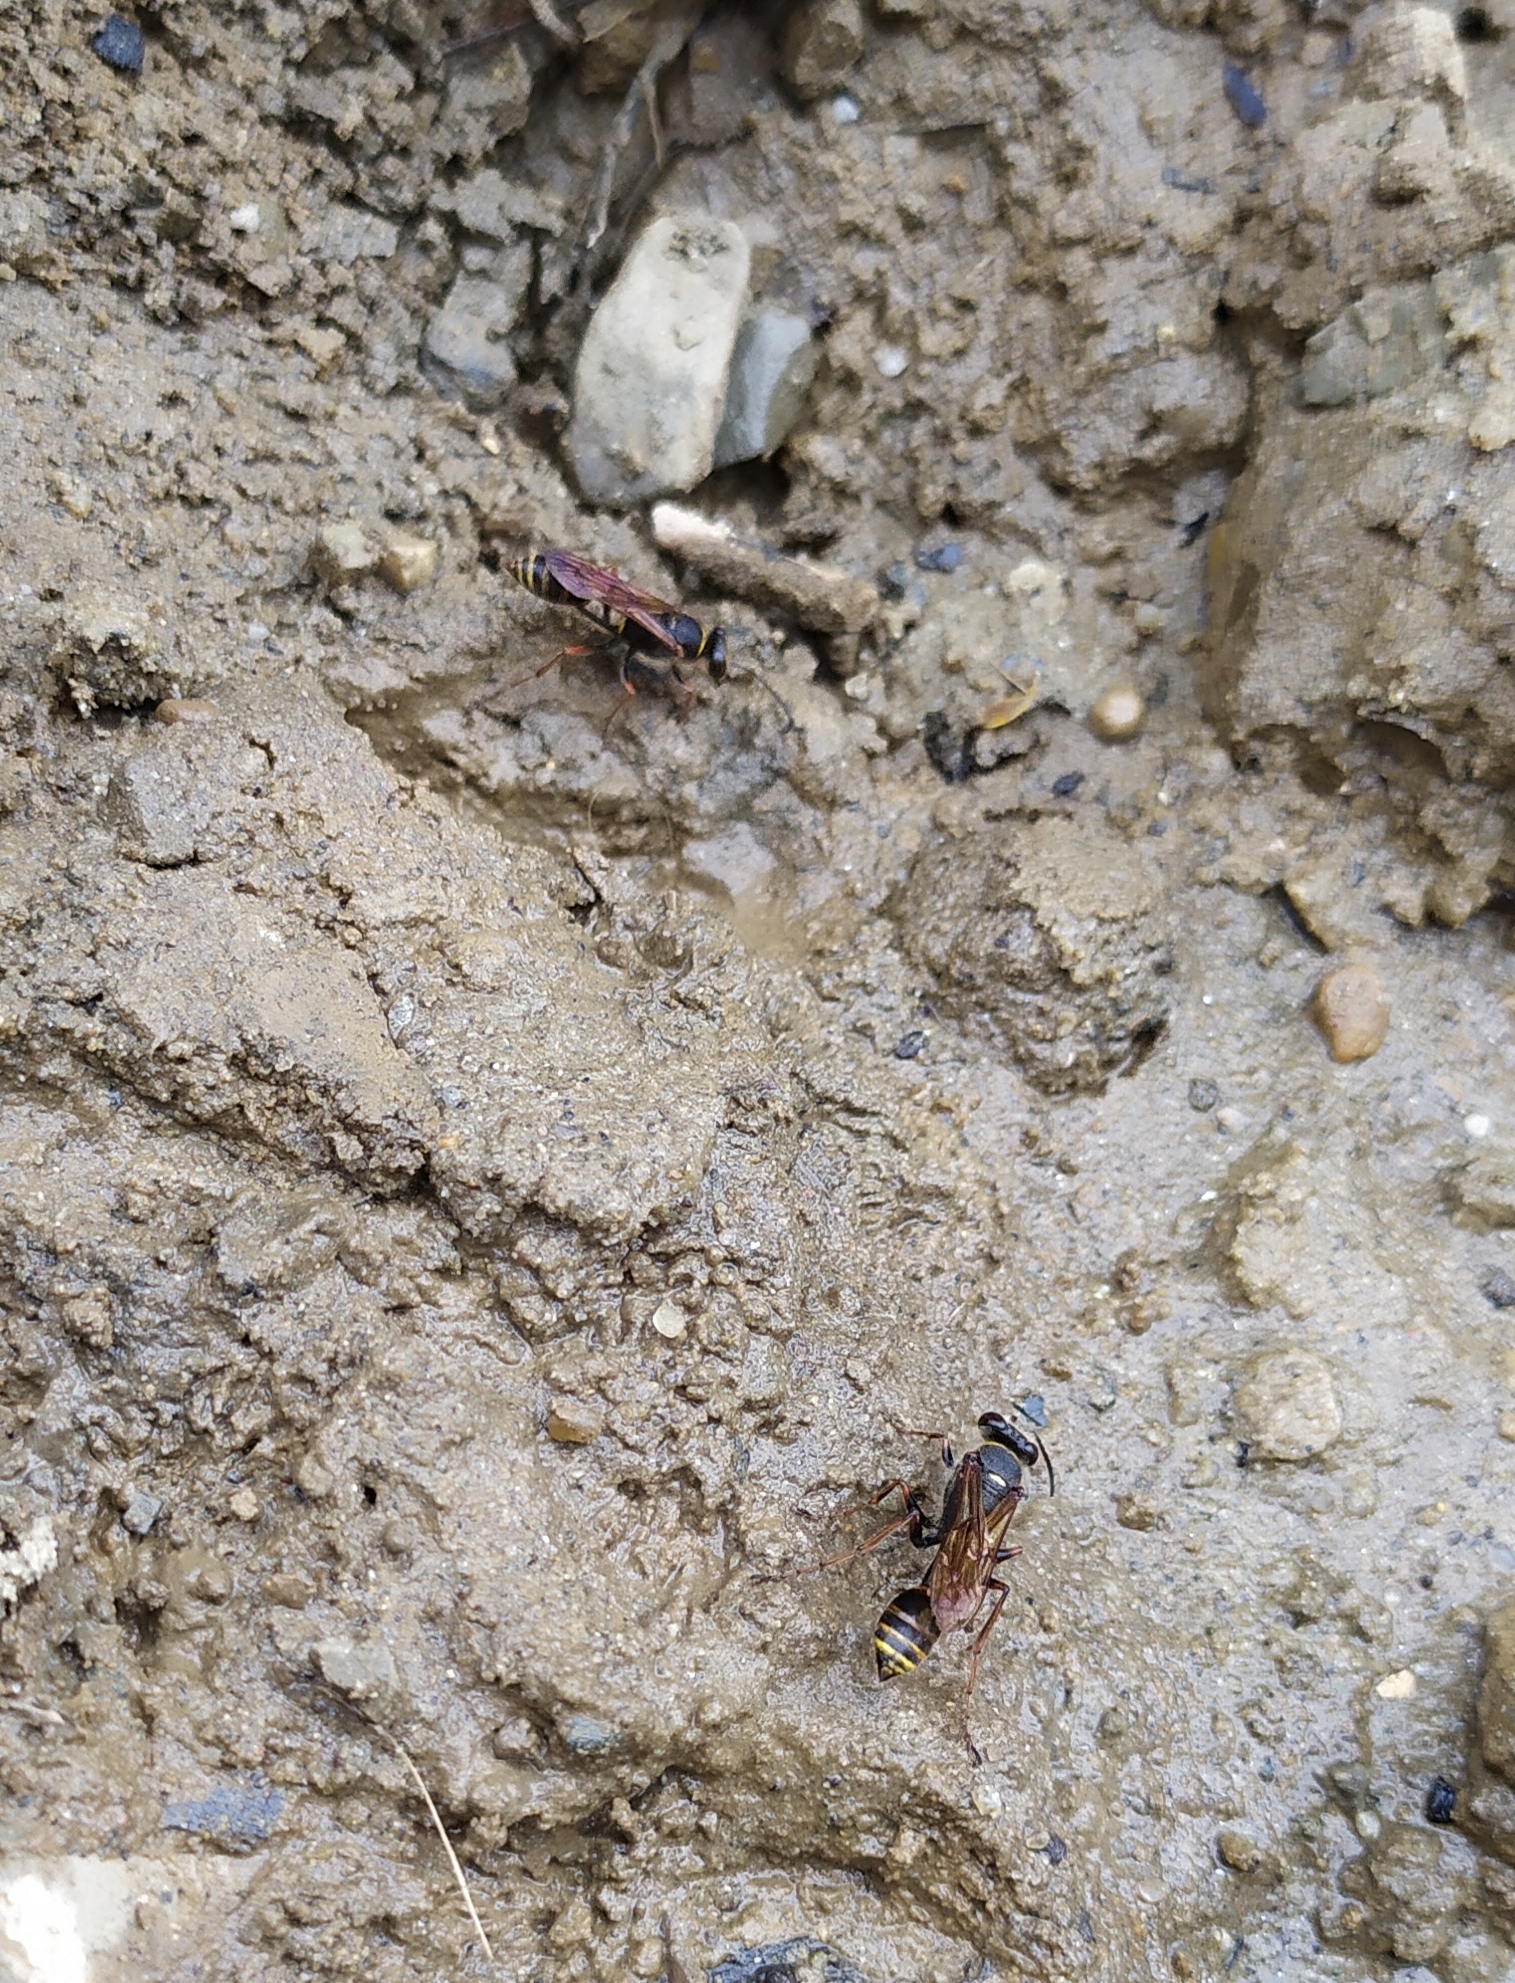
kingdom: Animalia
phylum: Arthropoda
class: Insecta
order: Hymenoptera
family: Sphecidae
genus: Sceliphron
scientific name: Sceliphron curvatum
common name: Pèlopèe
